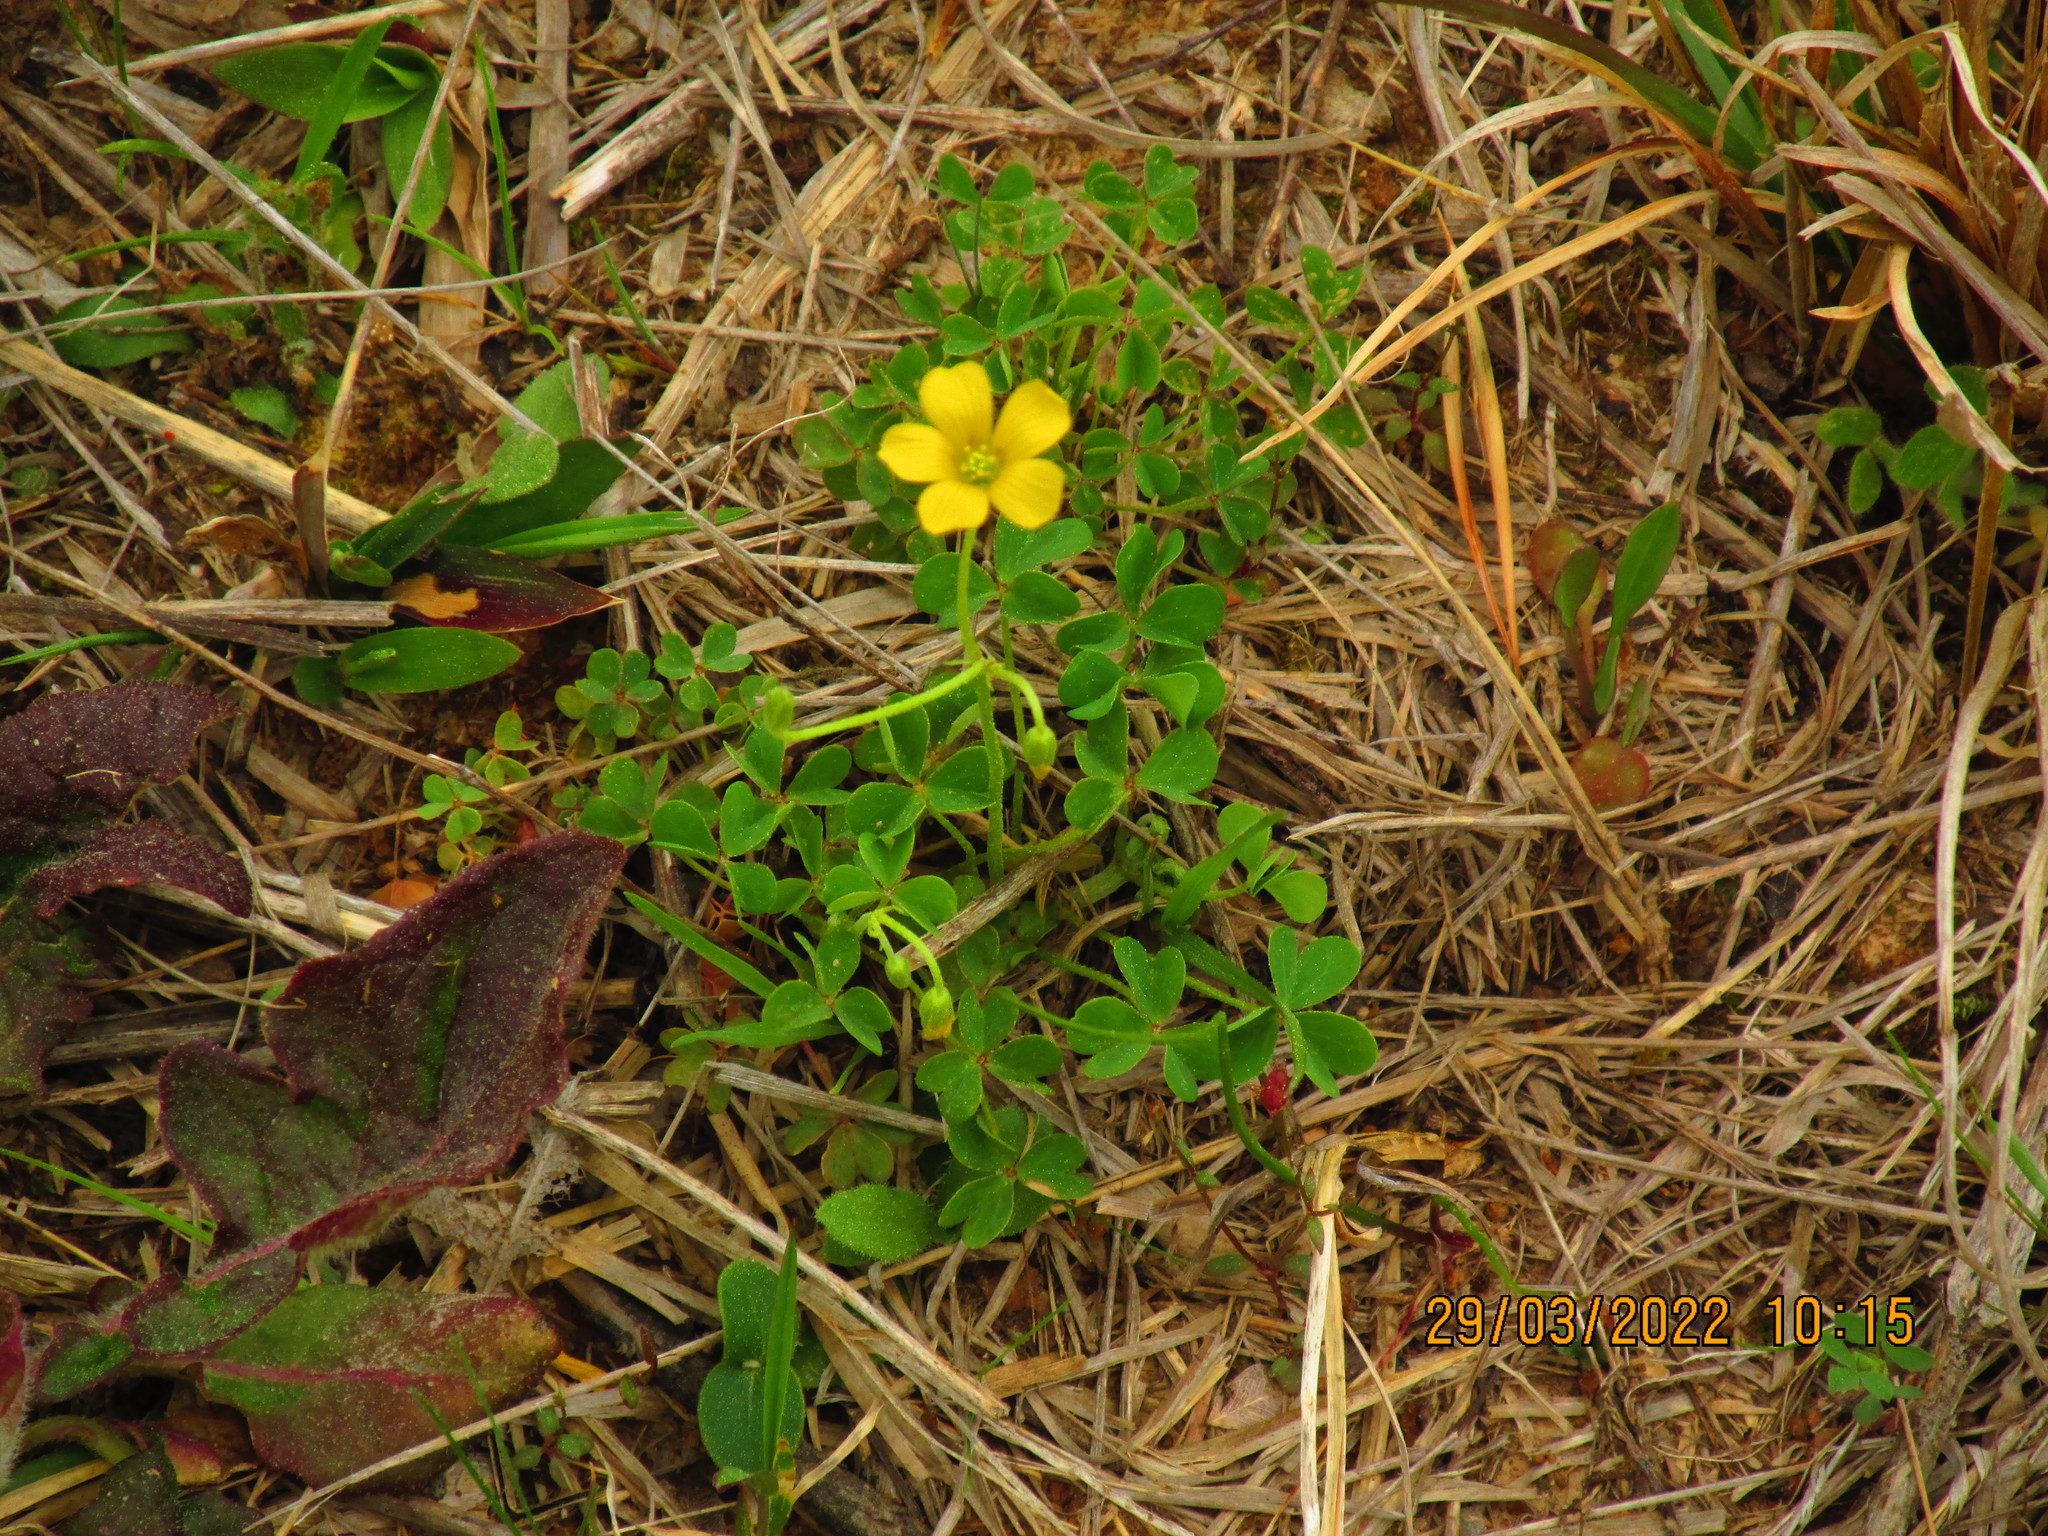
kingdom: Plantae
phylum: Tracheophyta
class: Magnoliopsida
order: Oxalidales
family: Oxalidaceae
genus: Oxalis
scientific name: Oxalis dillenii
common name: Sussex yellow-sorrel
